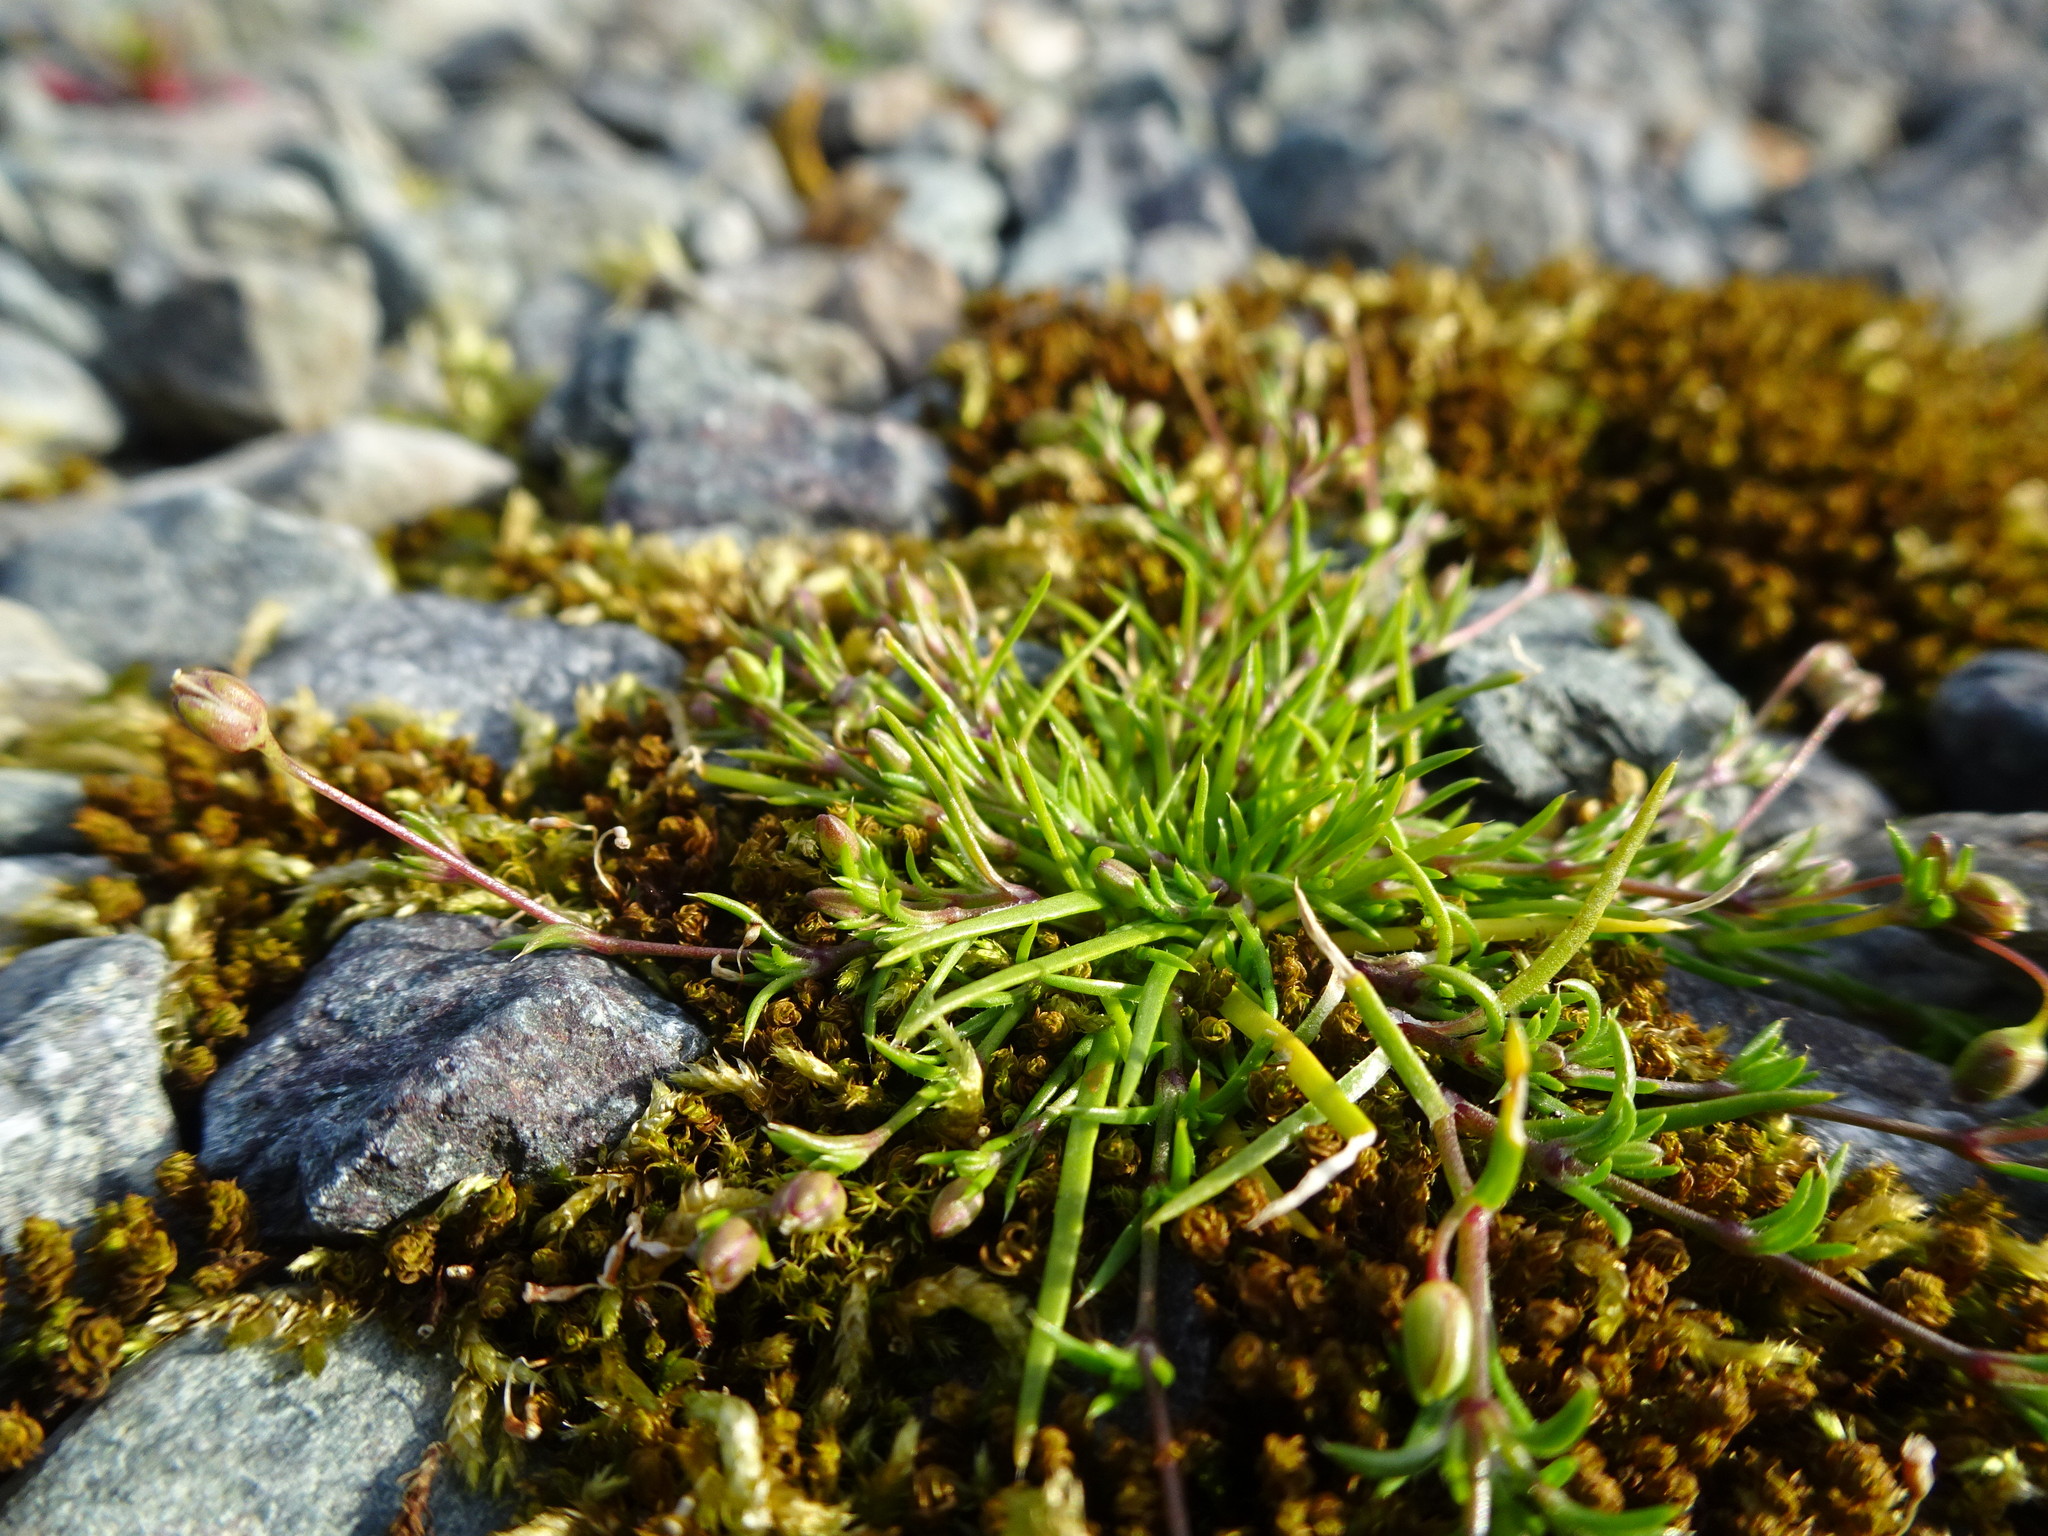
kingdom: Plantae
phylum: Tracheophyta
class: Magnoliopsida
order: Caryophyllales
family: Caryophyllaceae
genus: Sagina
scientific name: Sagina procumbens
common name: Procumbent pearlwort
